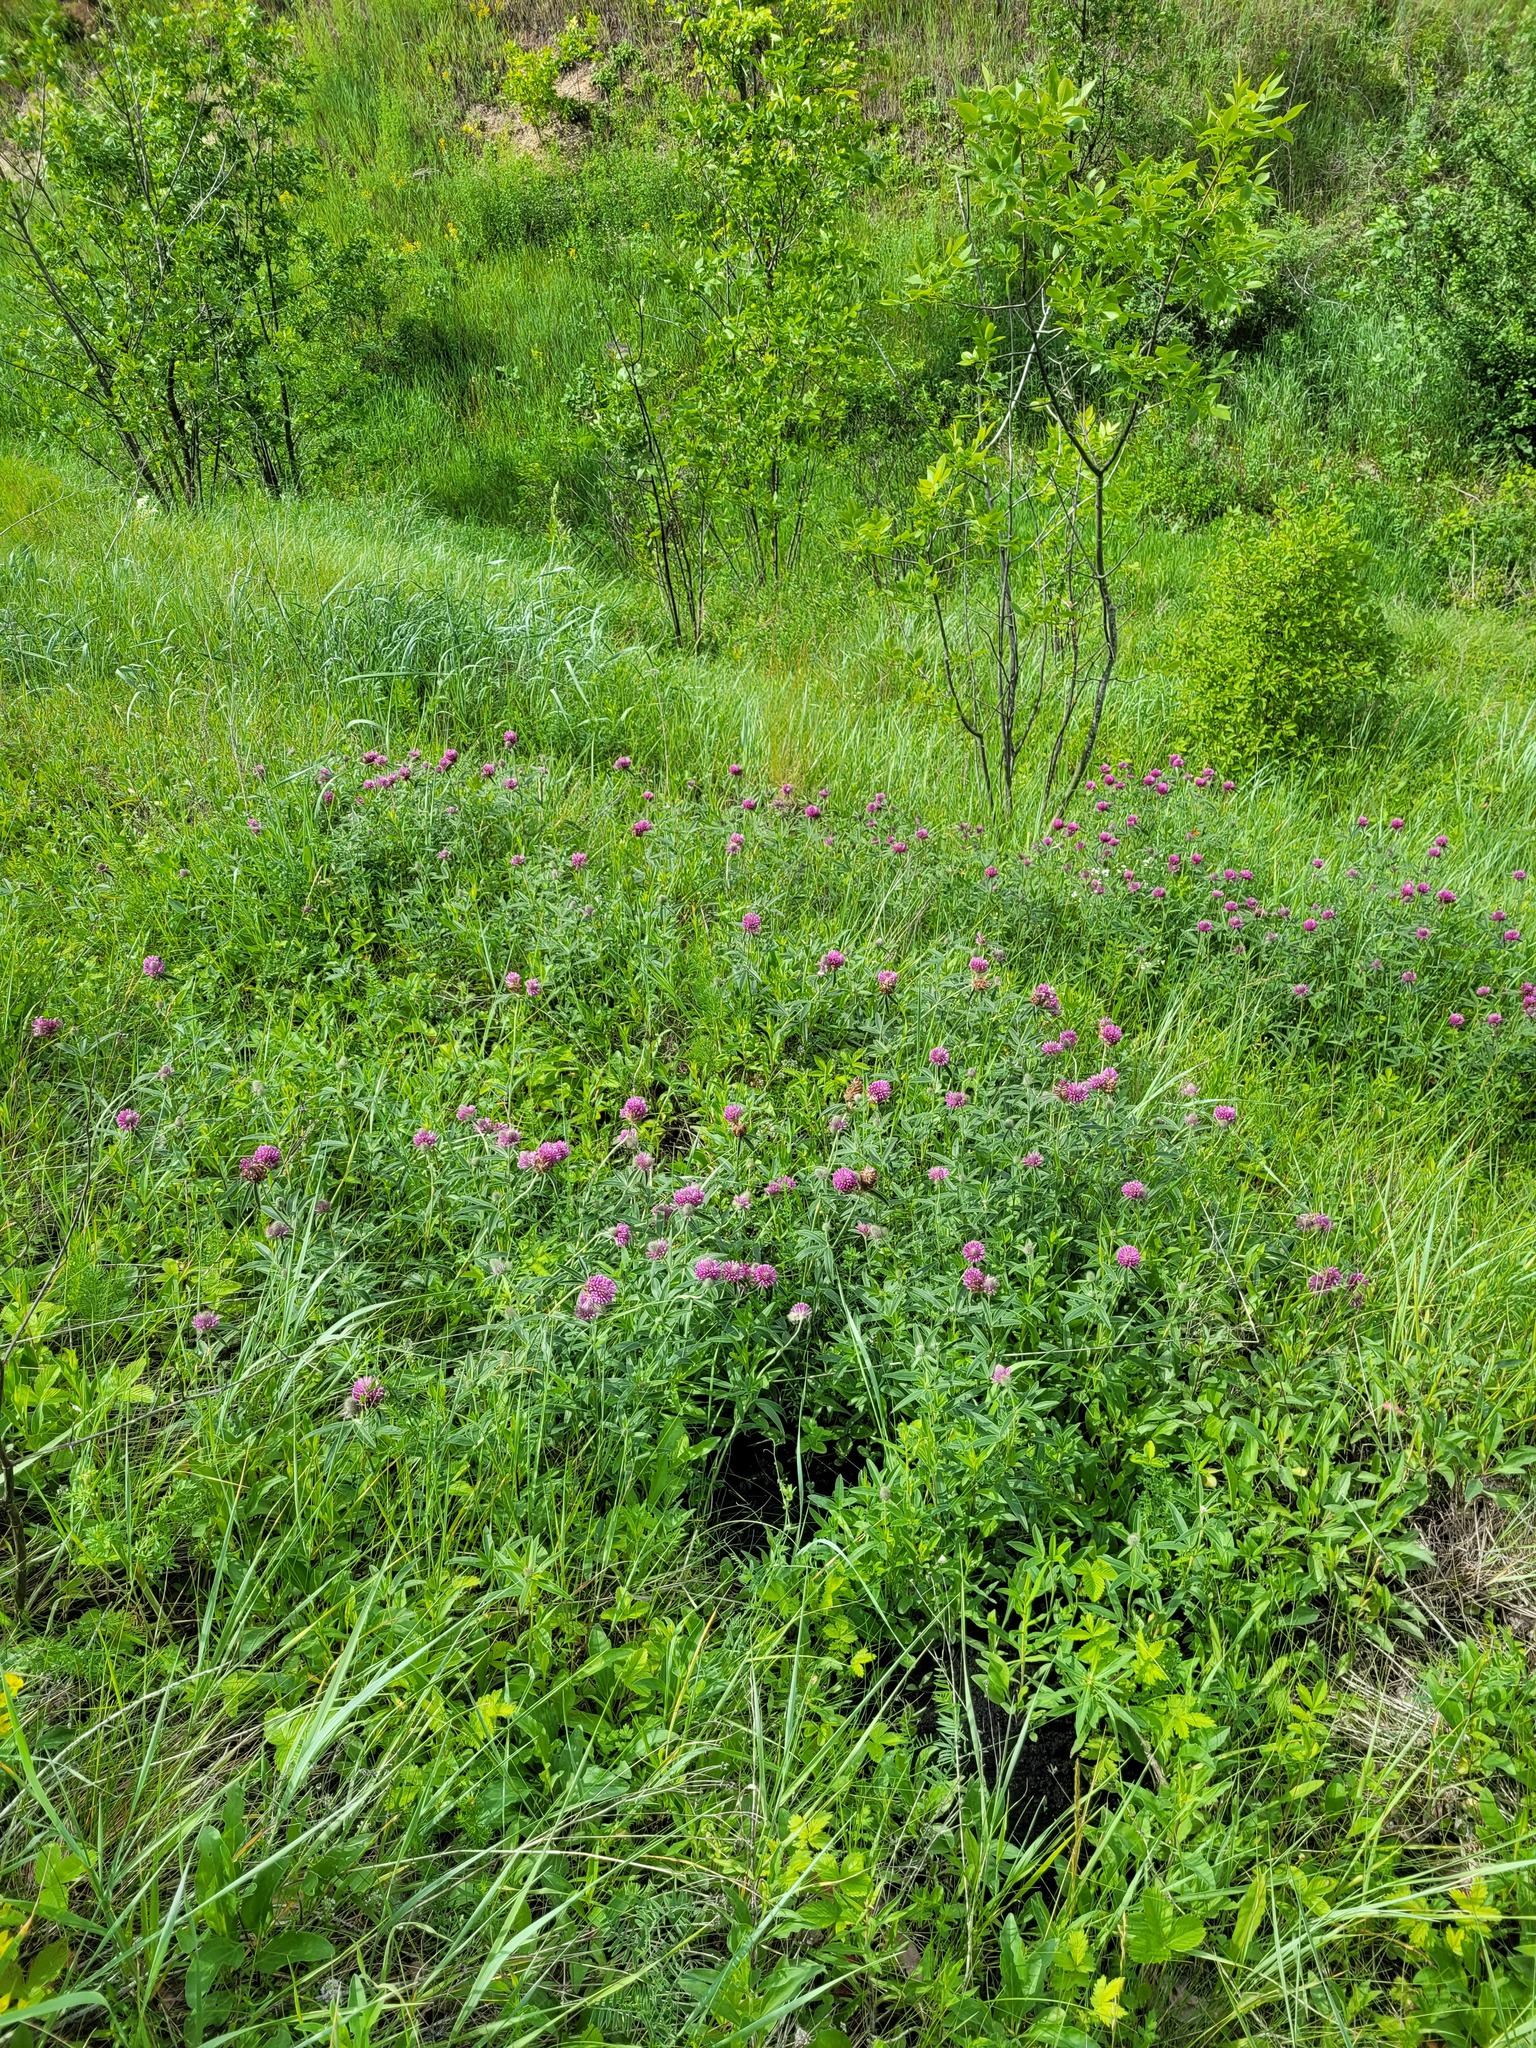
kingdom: Plantae
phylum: Tracheophyta
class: Magnoliopsida
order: Fabales
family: Fabaceae
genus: Trifolium
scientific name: Trifolium alpestre
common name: Owl-head clover
